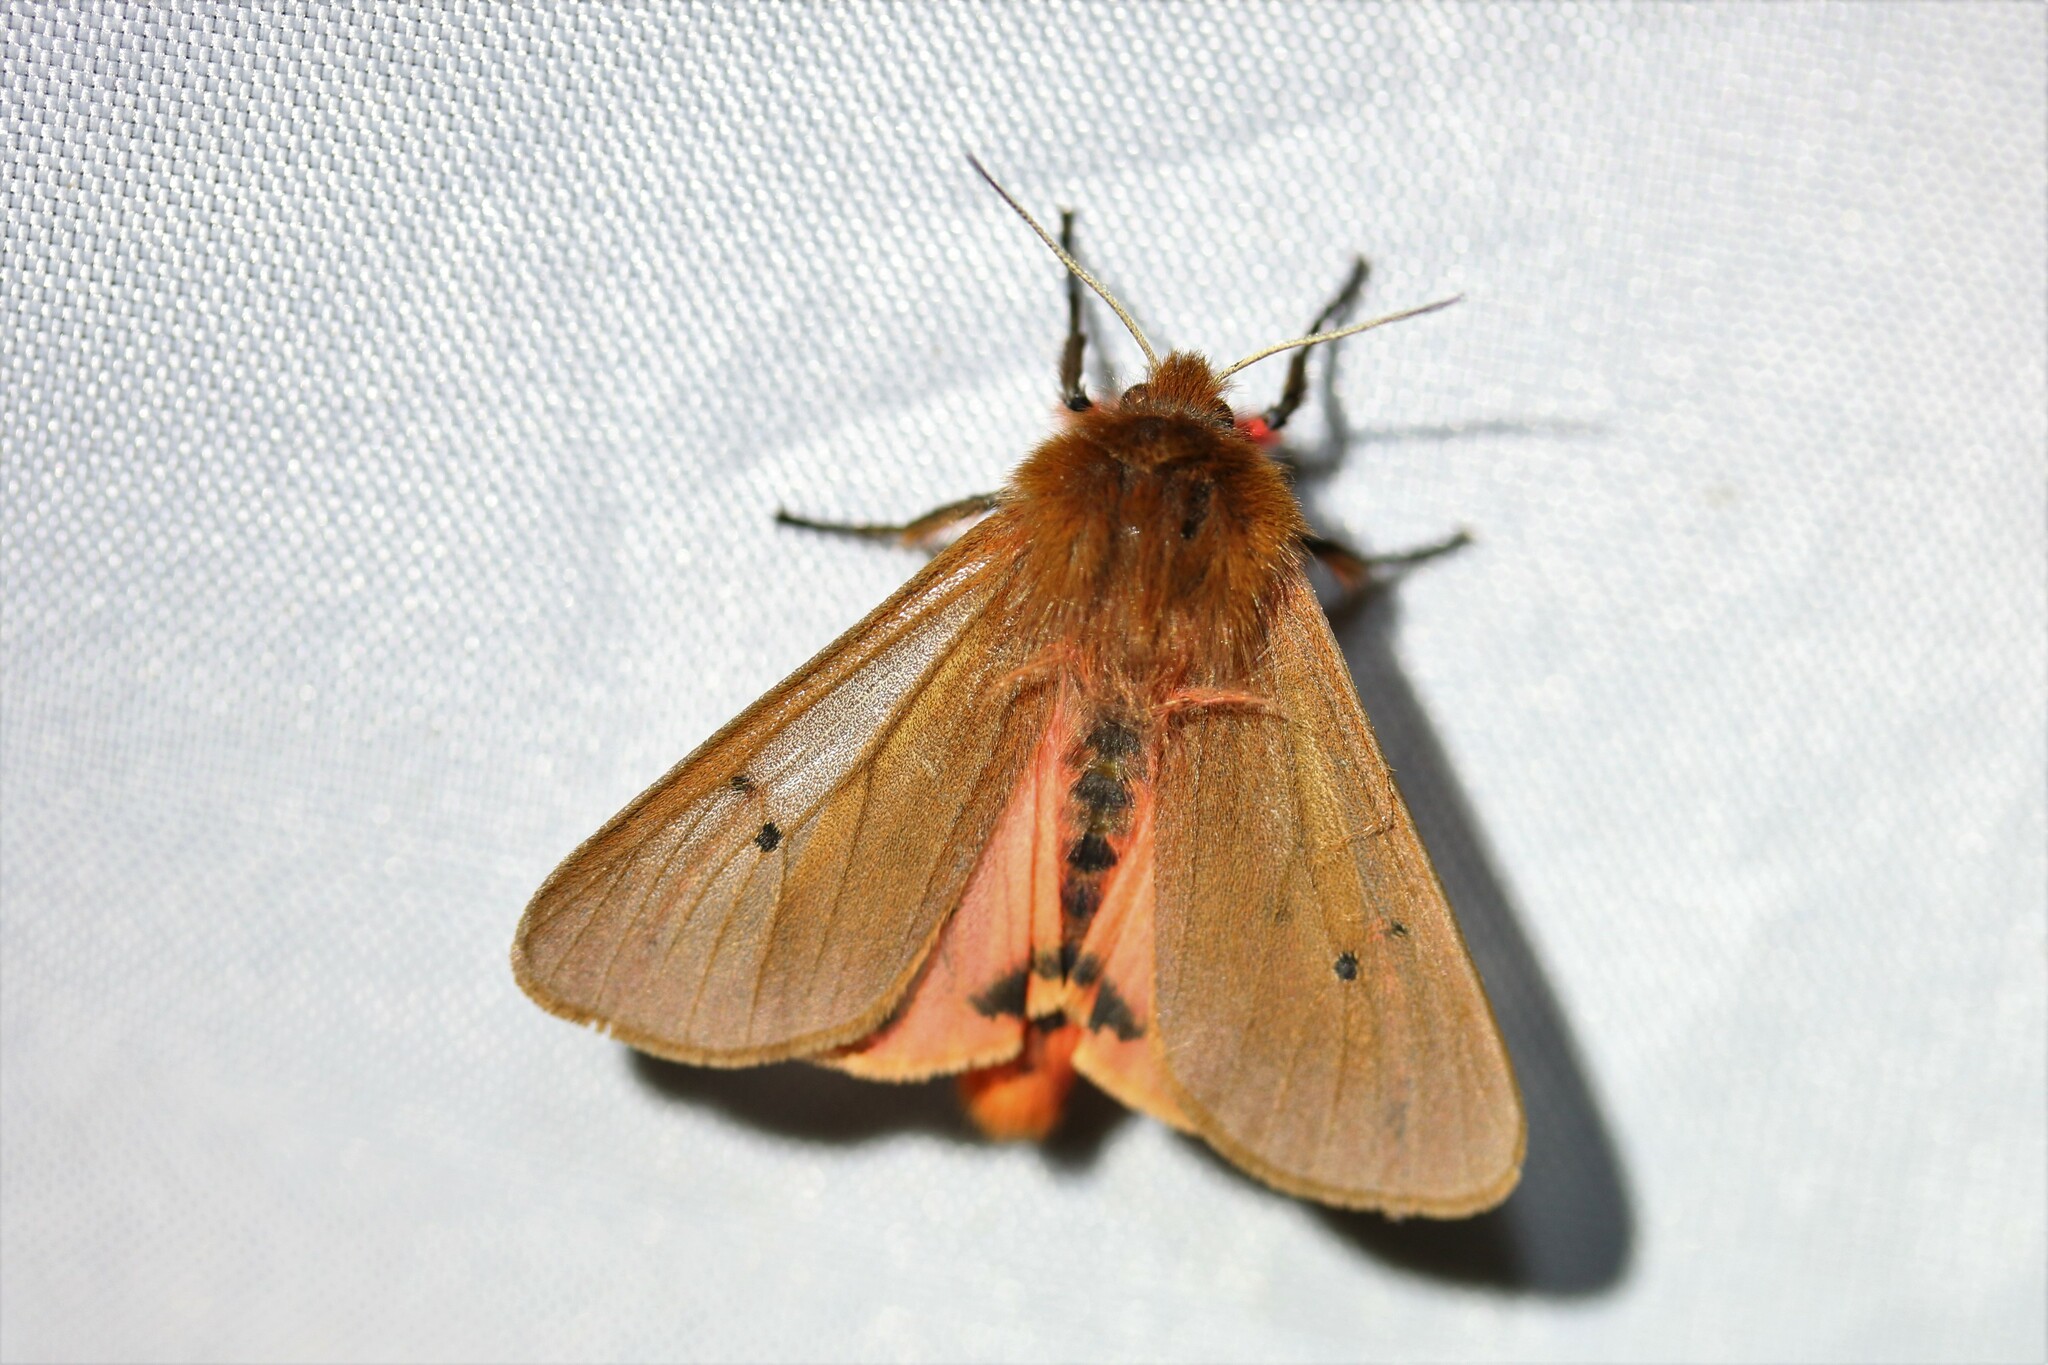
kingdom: Animalia
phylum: Arthropoda
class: Insecta
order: Lepidoptera
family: Erebidae
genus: Phragmatobia
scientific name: Phragmatobia fuliginosa
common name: Ruby tiger
